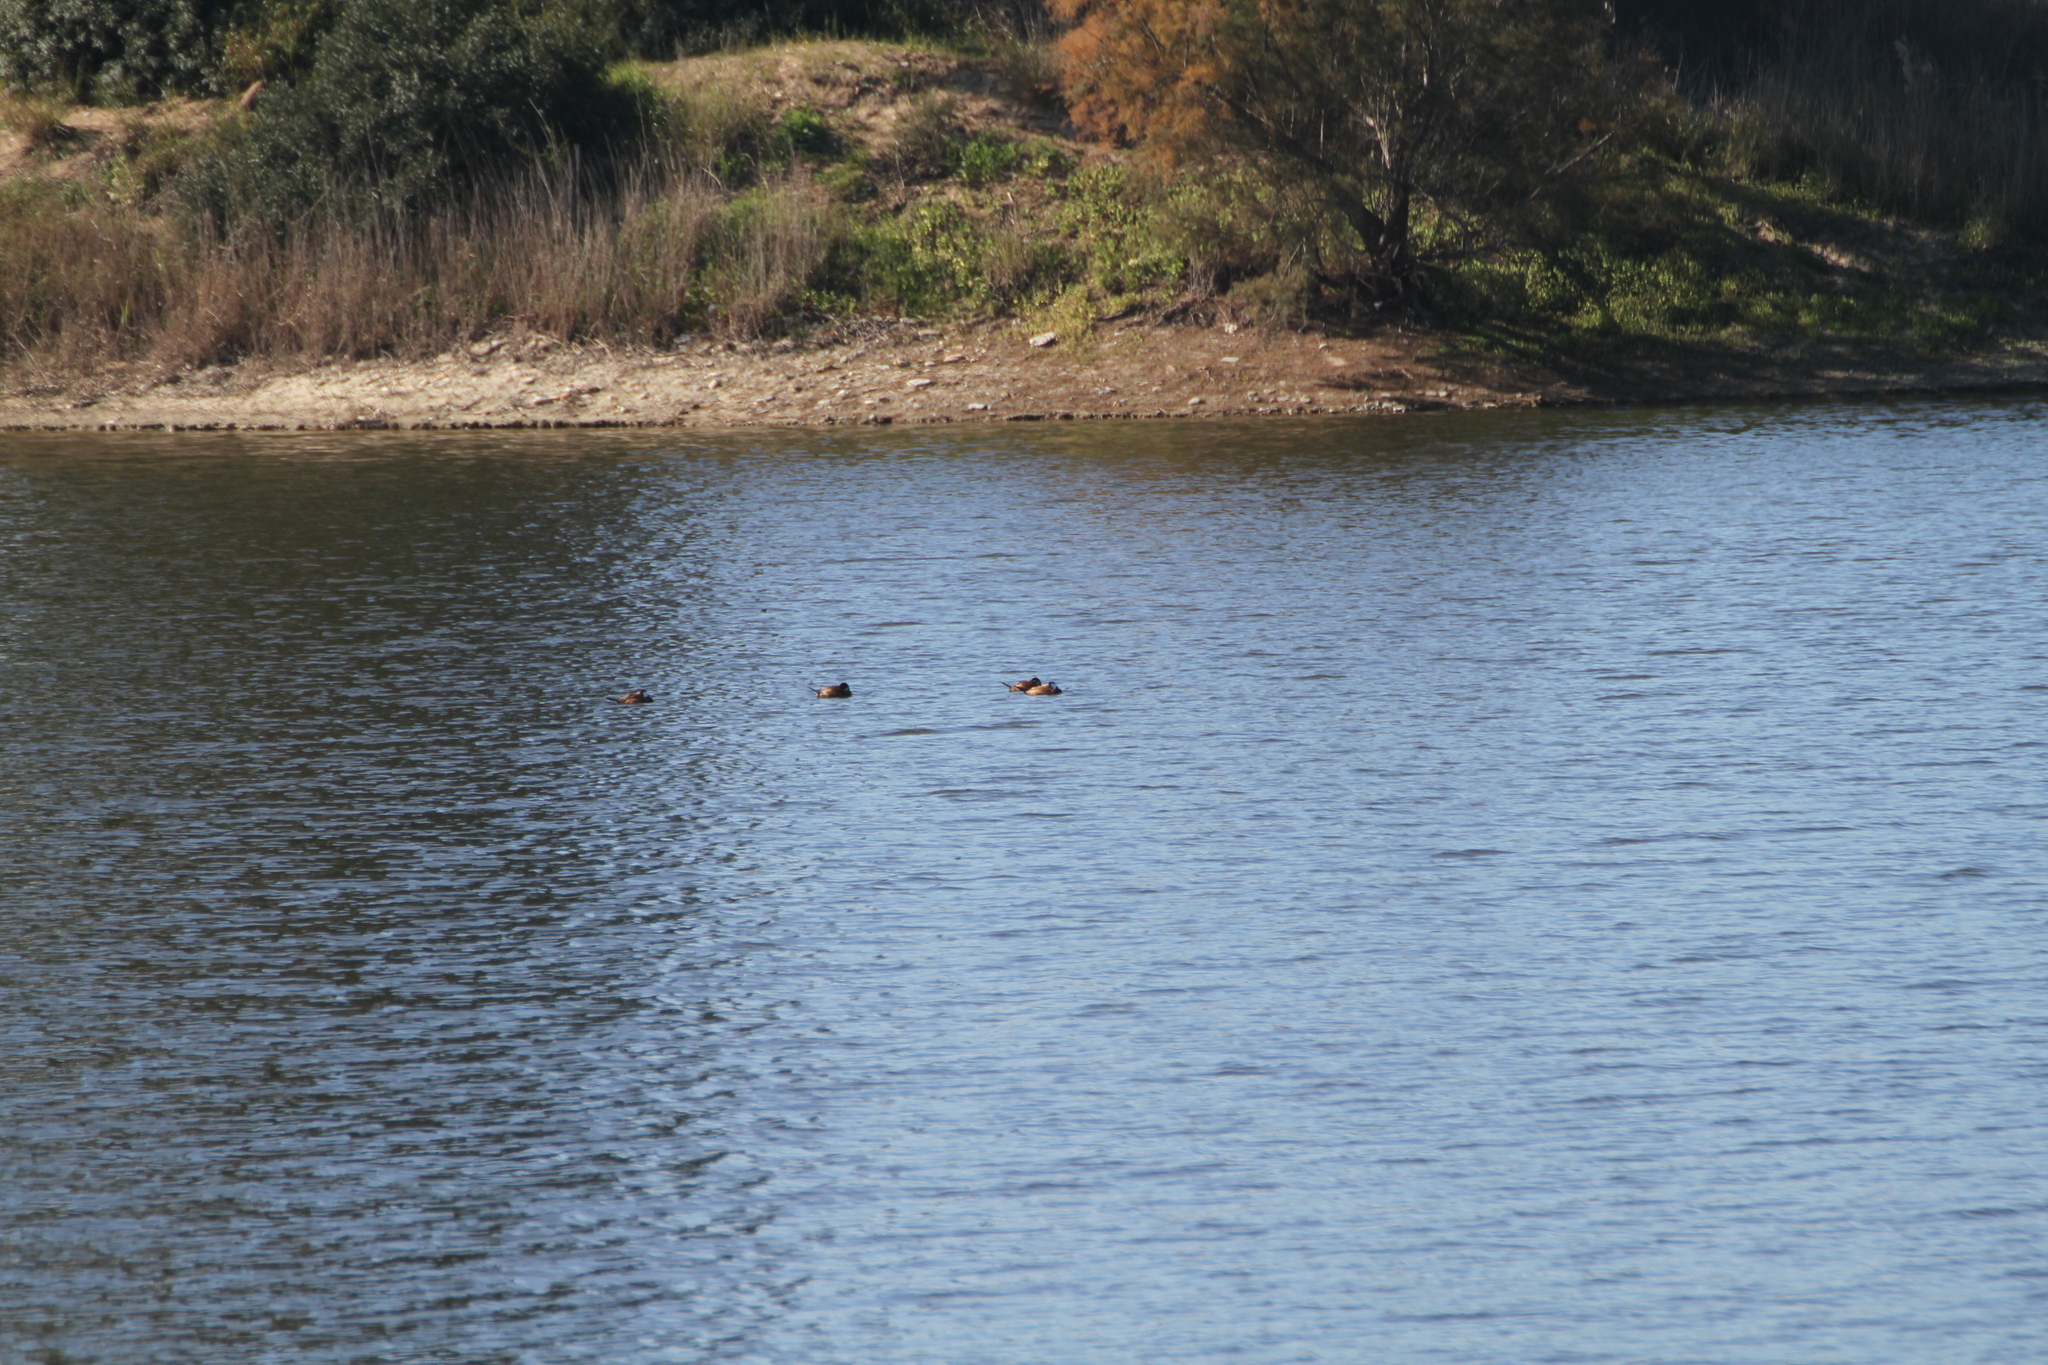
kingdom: Animalia
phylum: Chordata
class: Aves
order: Anseriformes
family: Anatidae
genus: Oxyura
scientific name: Oxyura leucocephala
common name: White-headed duck
